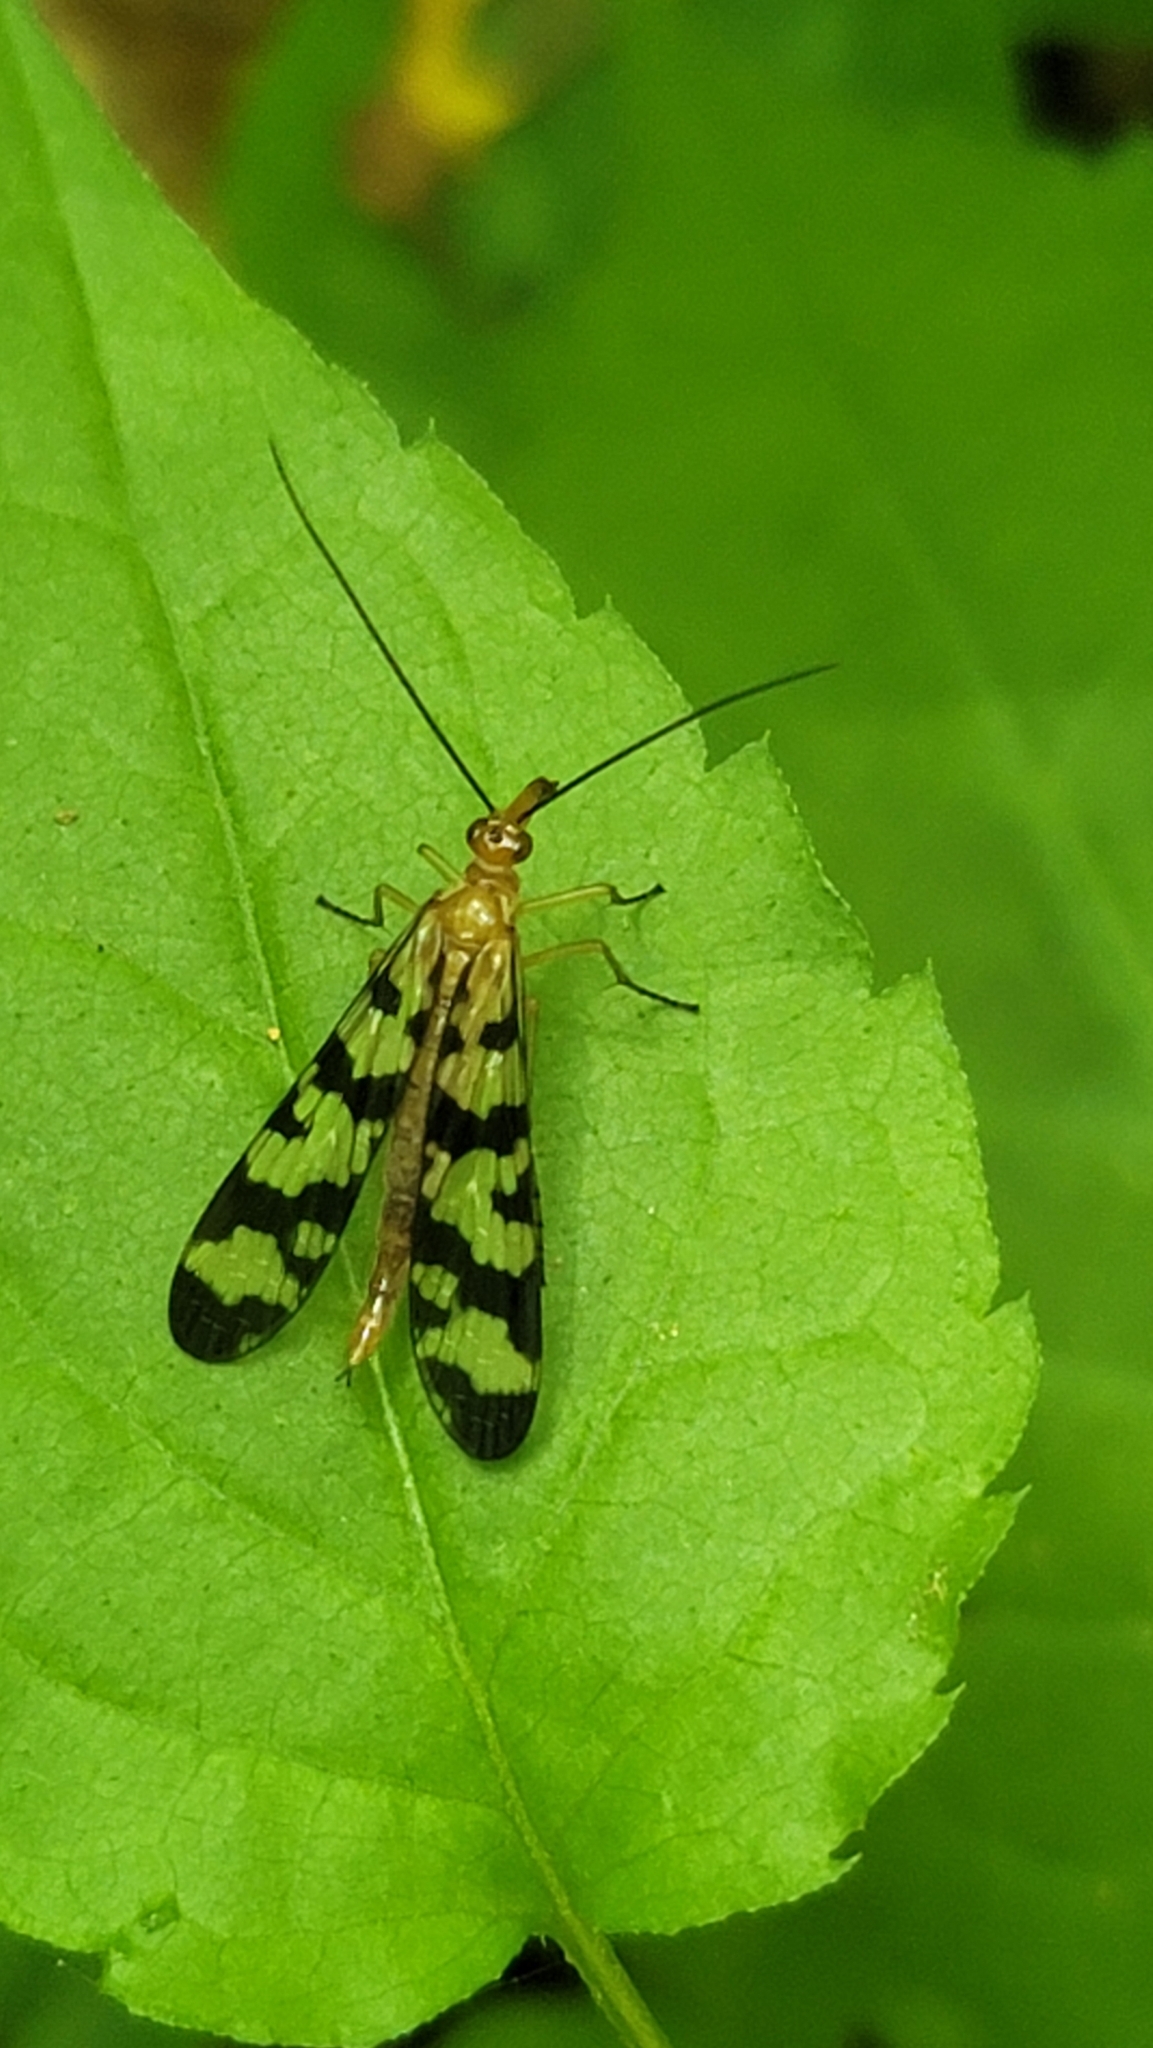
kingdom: Animalia
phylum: Arthropoda
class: Insecta
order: Mecoptera
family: Panorpidae
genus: Panorpa
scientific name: Panorpa subfurcata
